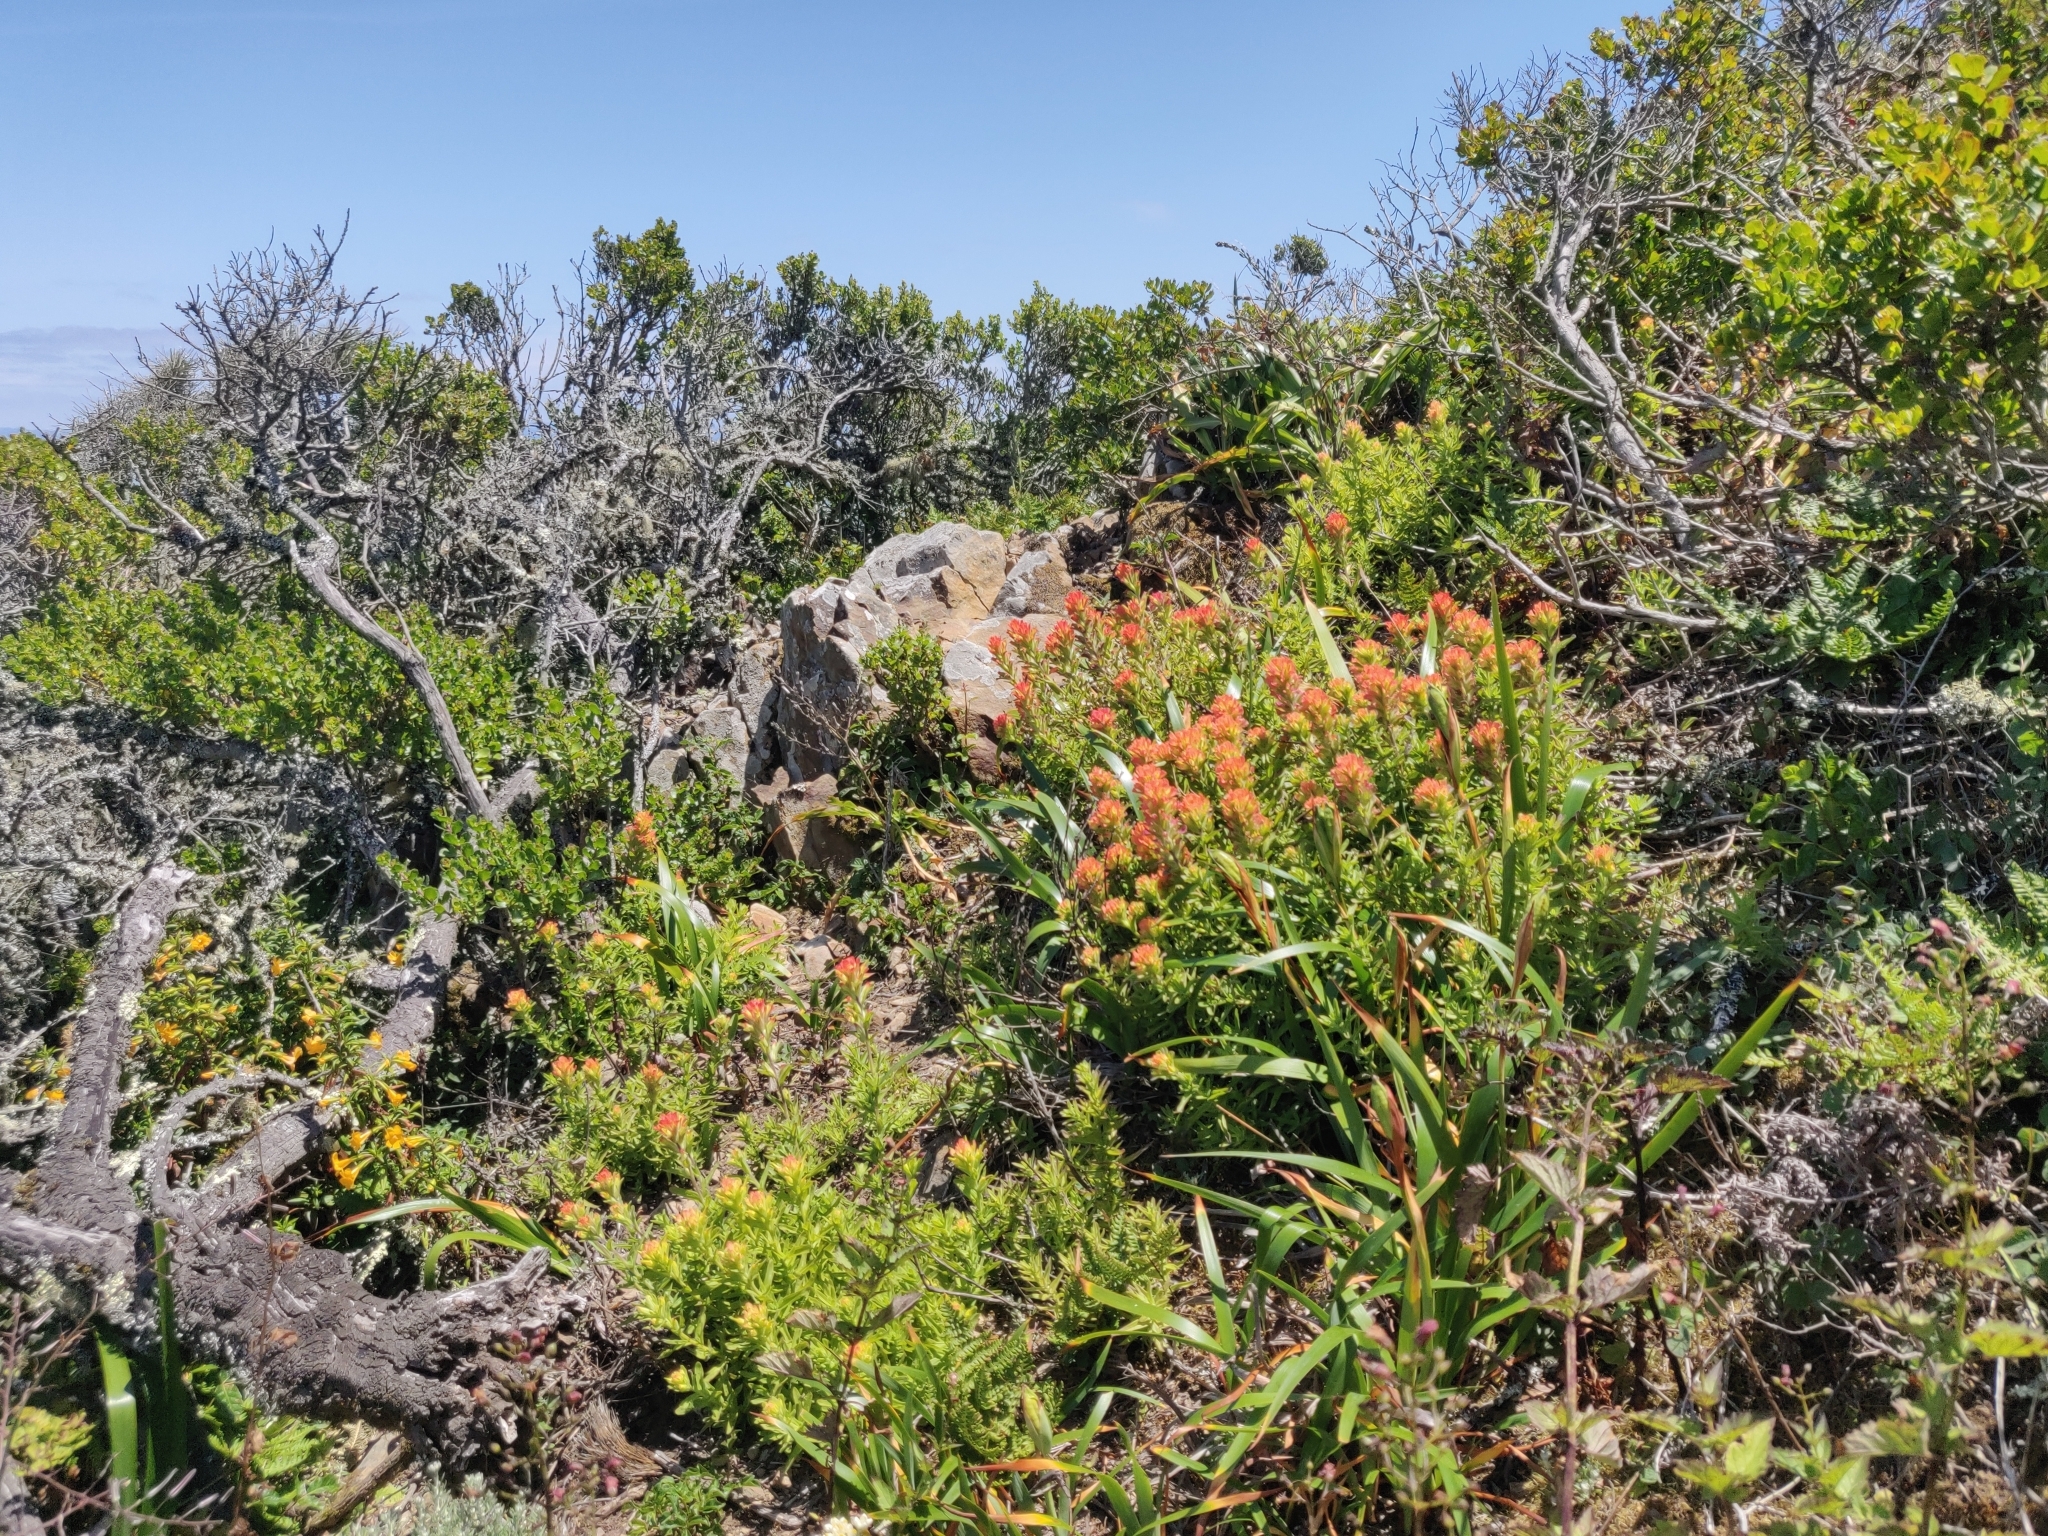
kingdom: Plantae
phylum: Tracheophyta
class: Magnoliopsida
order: Lamiales
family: Orobanchaceae
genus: Castilleja
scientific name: Castilleja wightii
